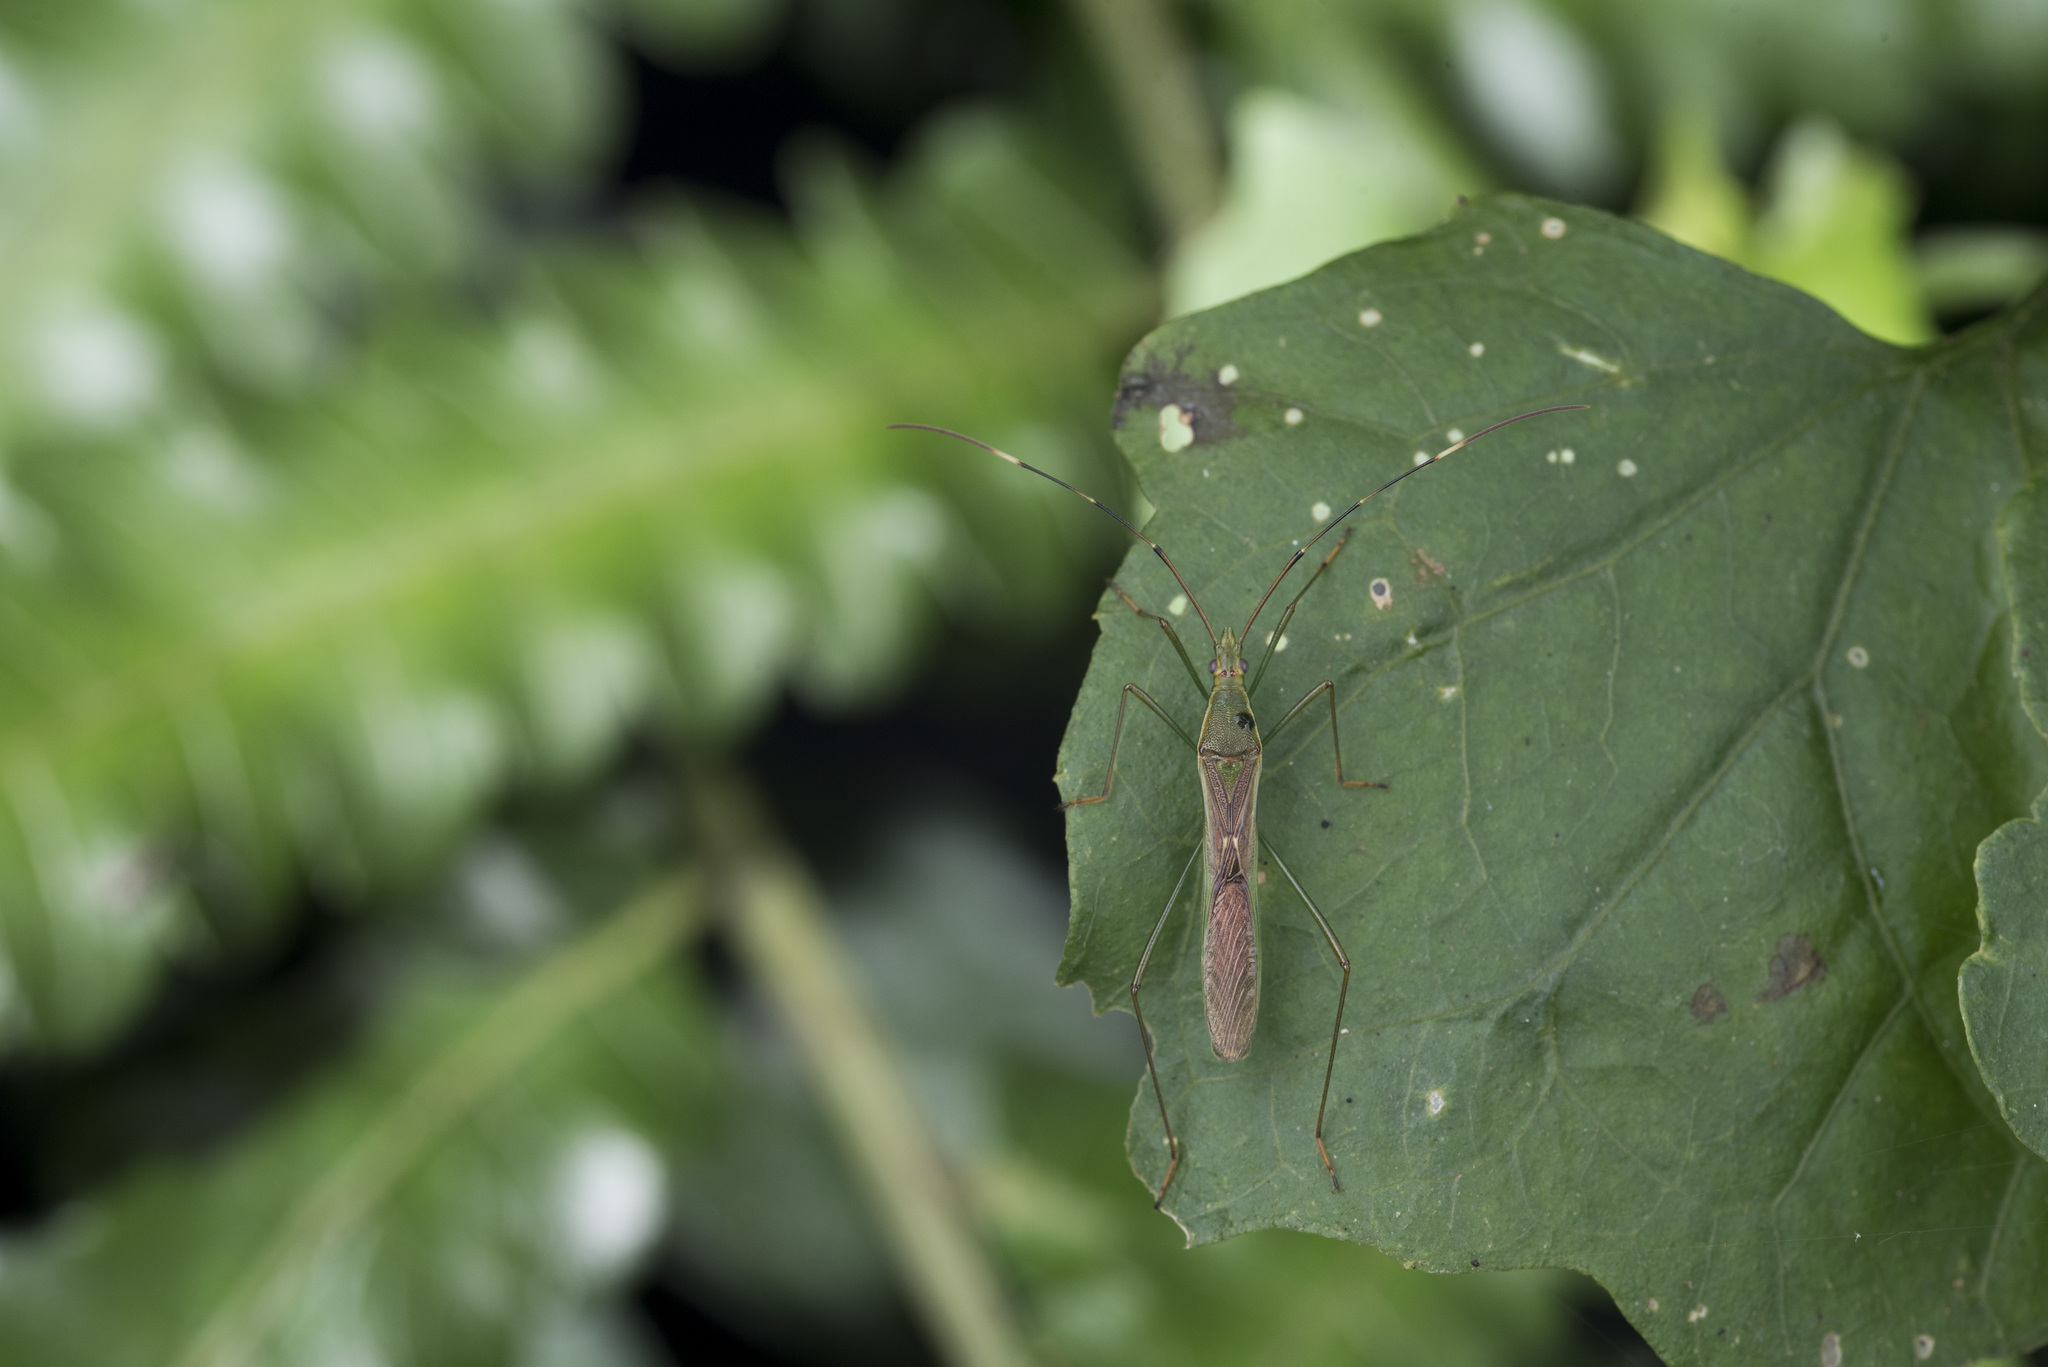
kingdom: Animalia
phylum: Arthropoda
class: Insecta
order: Hemiptera
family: Alydidae
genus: Leptocorisa
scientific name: Leptocorisa acuta
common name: Gandhi bug
